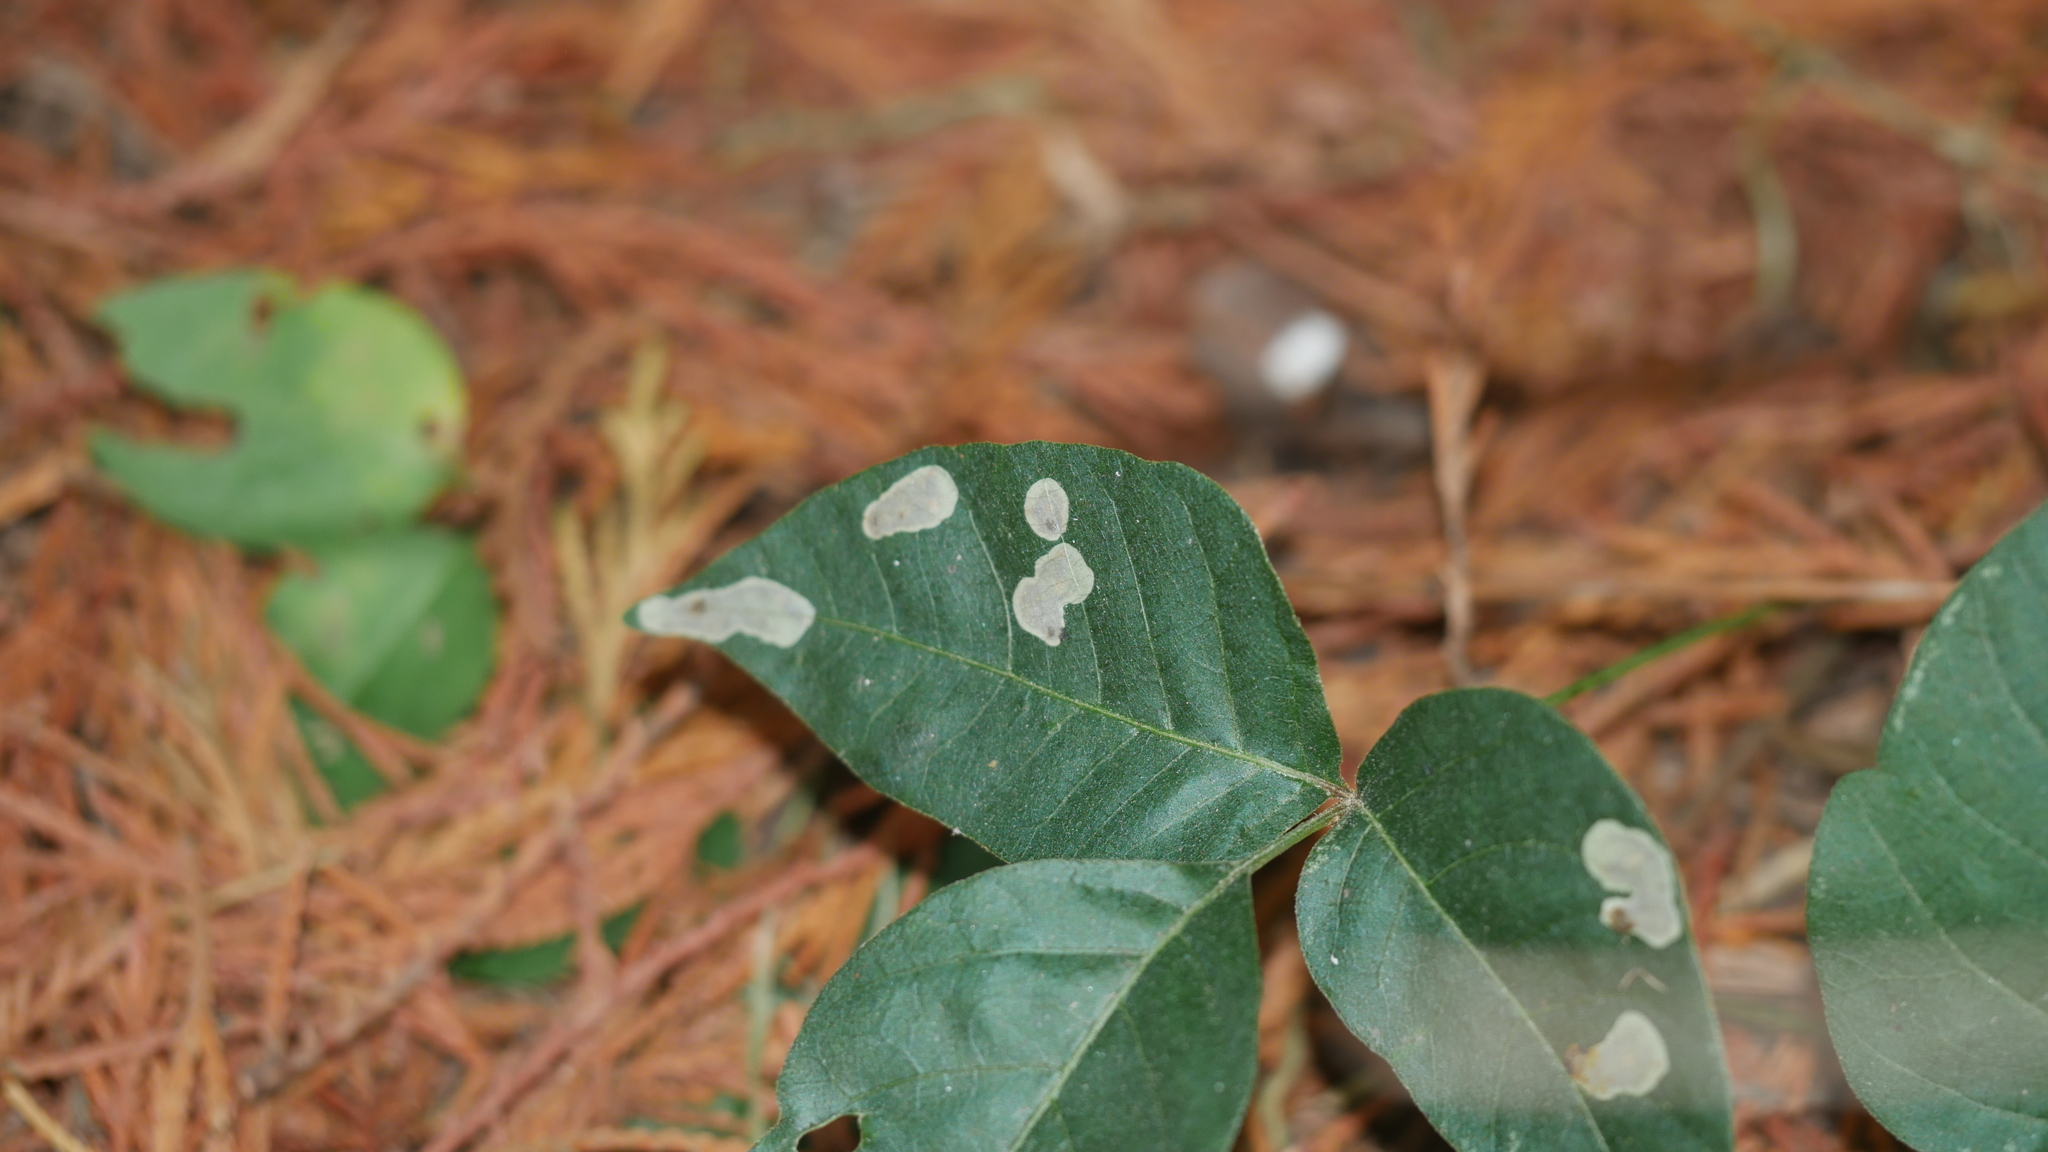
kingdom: Animalia
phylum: Arthropoda
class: Insecta
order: Lepidoptera
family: Gracillariidae
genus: Cameraria
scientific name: Cameraria guttifinitella
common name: Poison ivy leaf-miner moth
